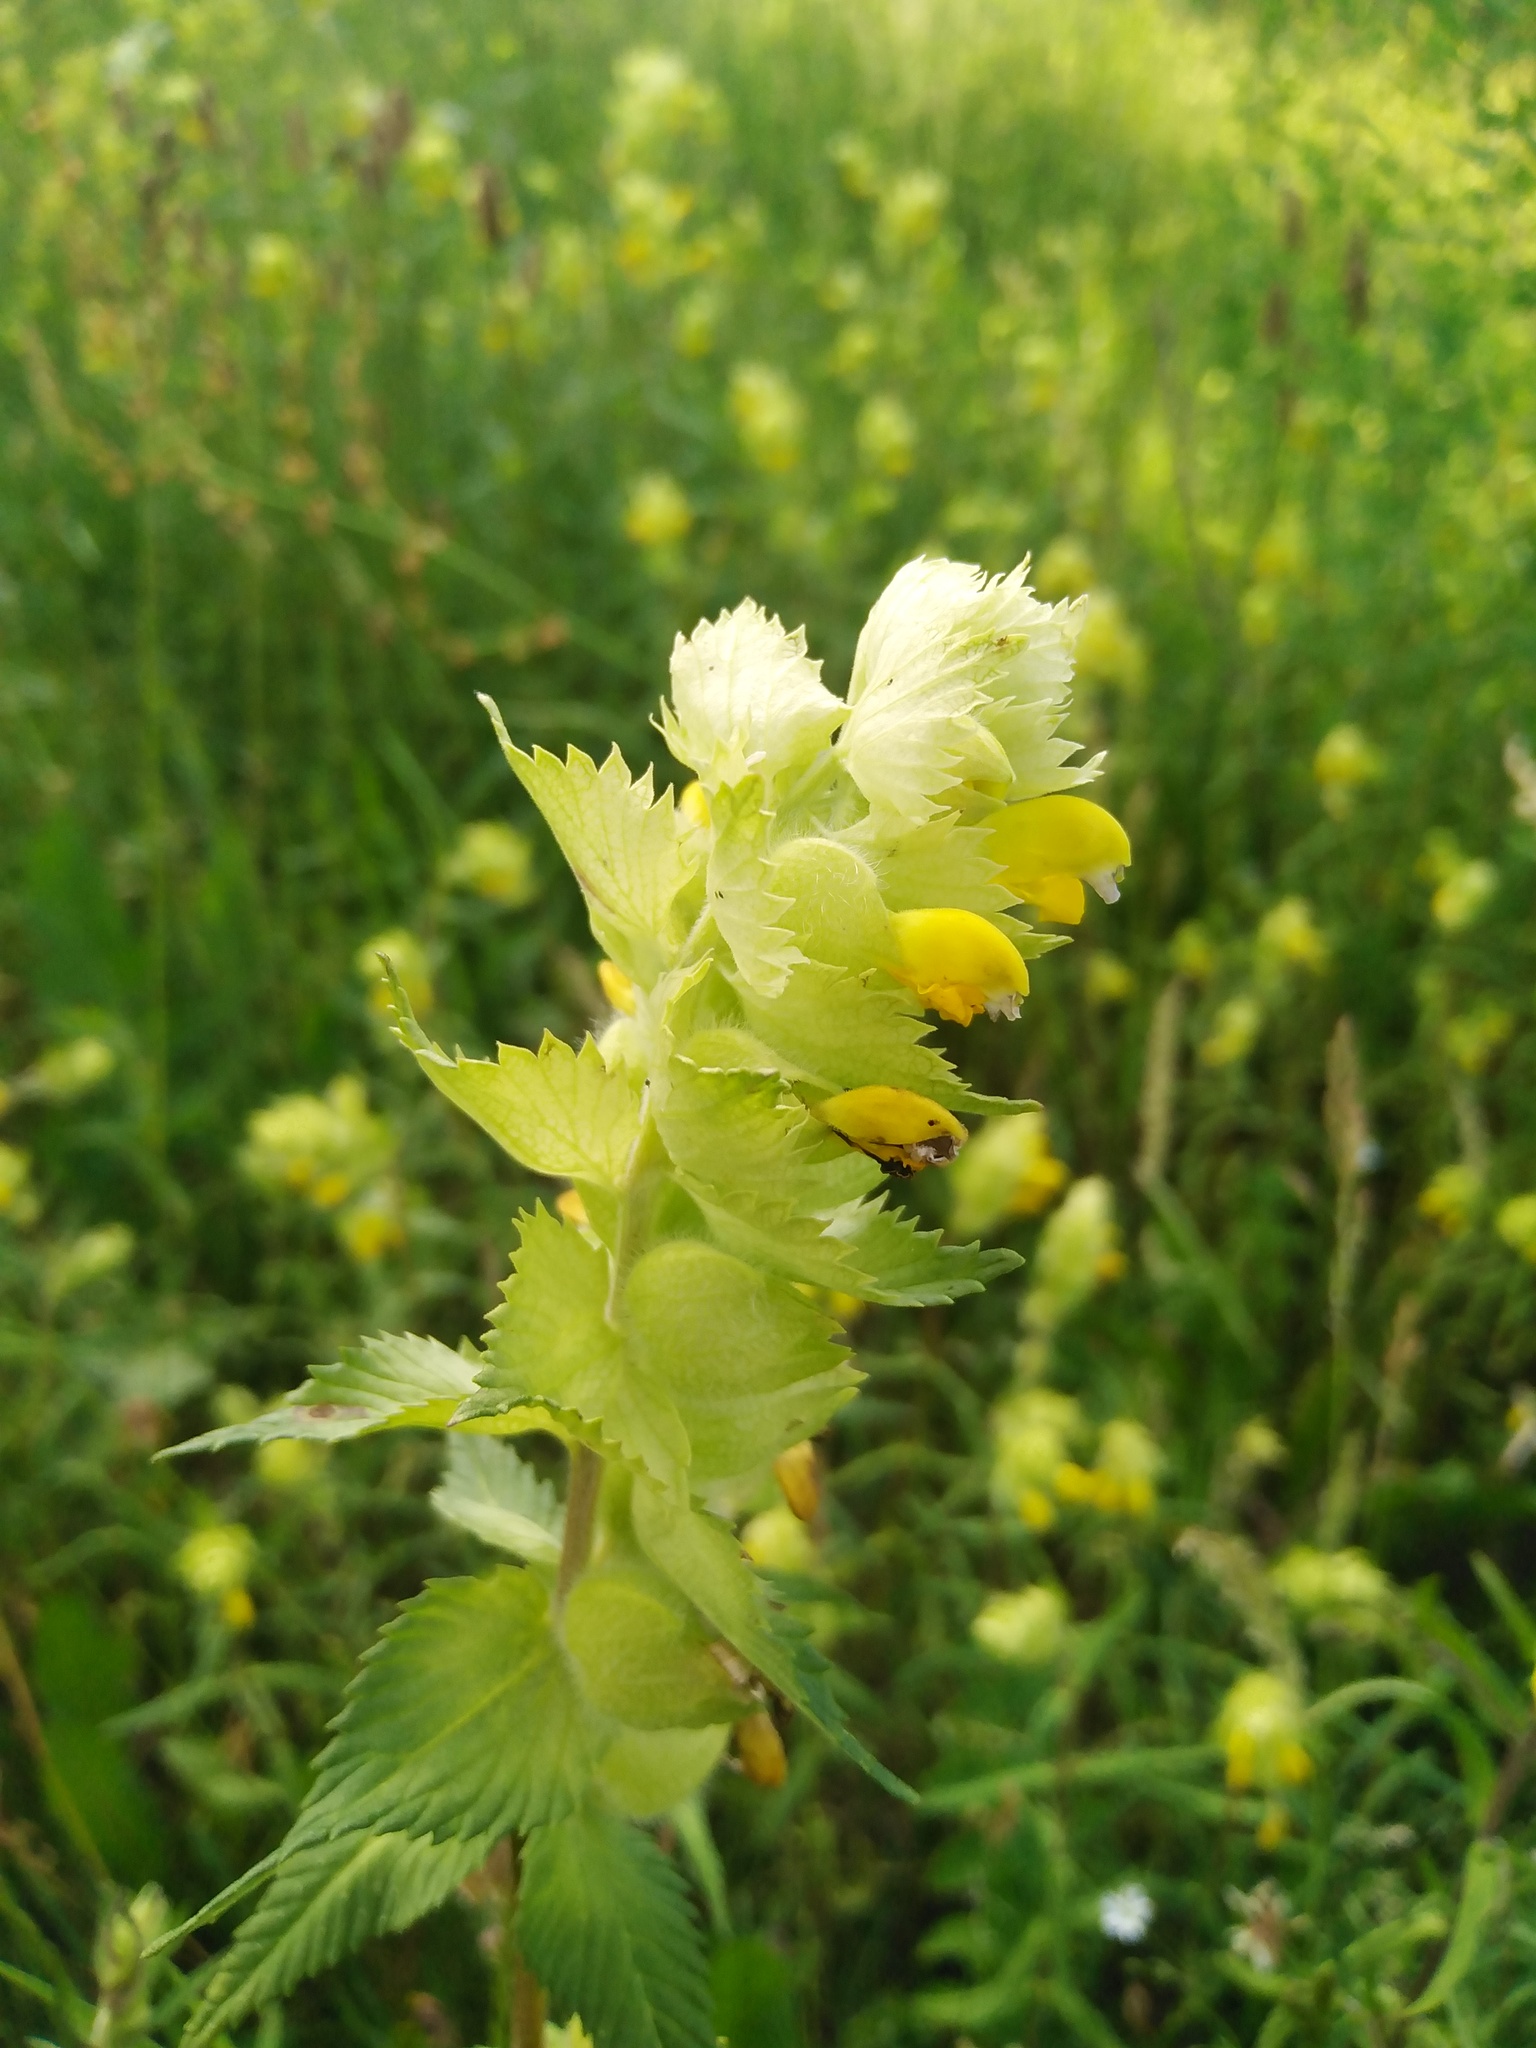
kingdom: Plantae
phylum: Tracheophyta
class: Magnoliopsida
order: Lamiales
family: Orobanchaceae
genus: Rhinanthus
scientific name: Rhinanthus alectorolophus
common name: Greater yellow-rattle
